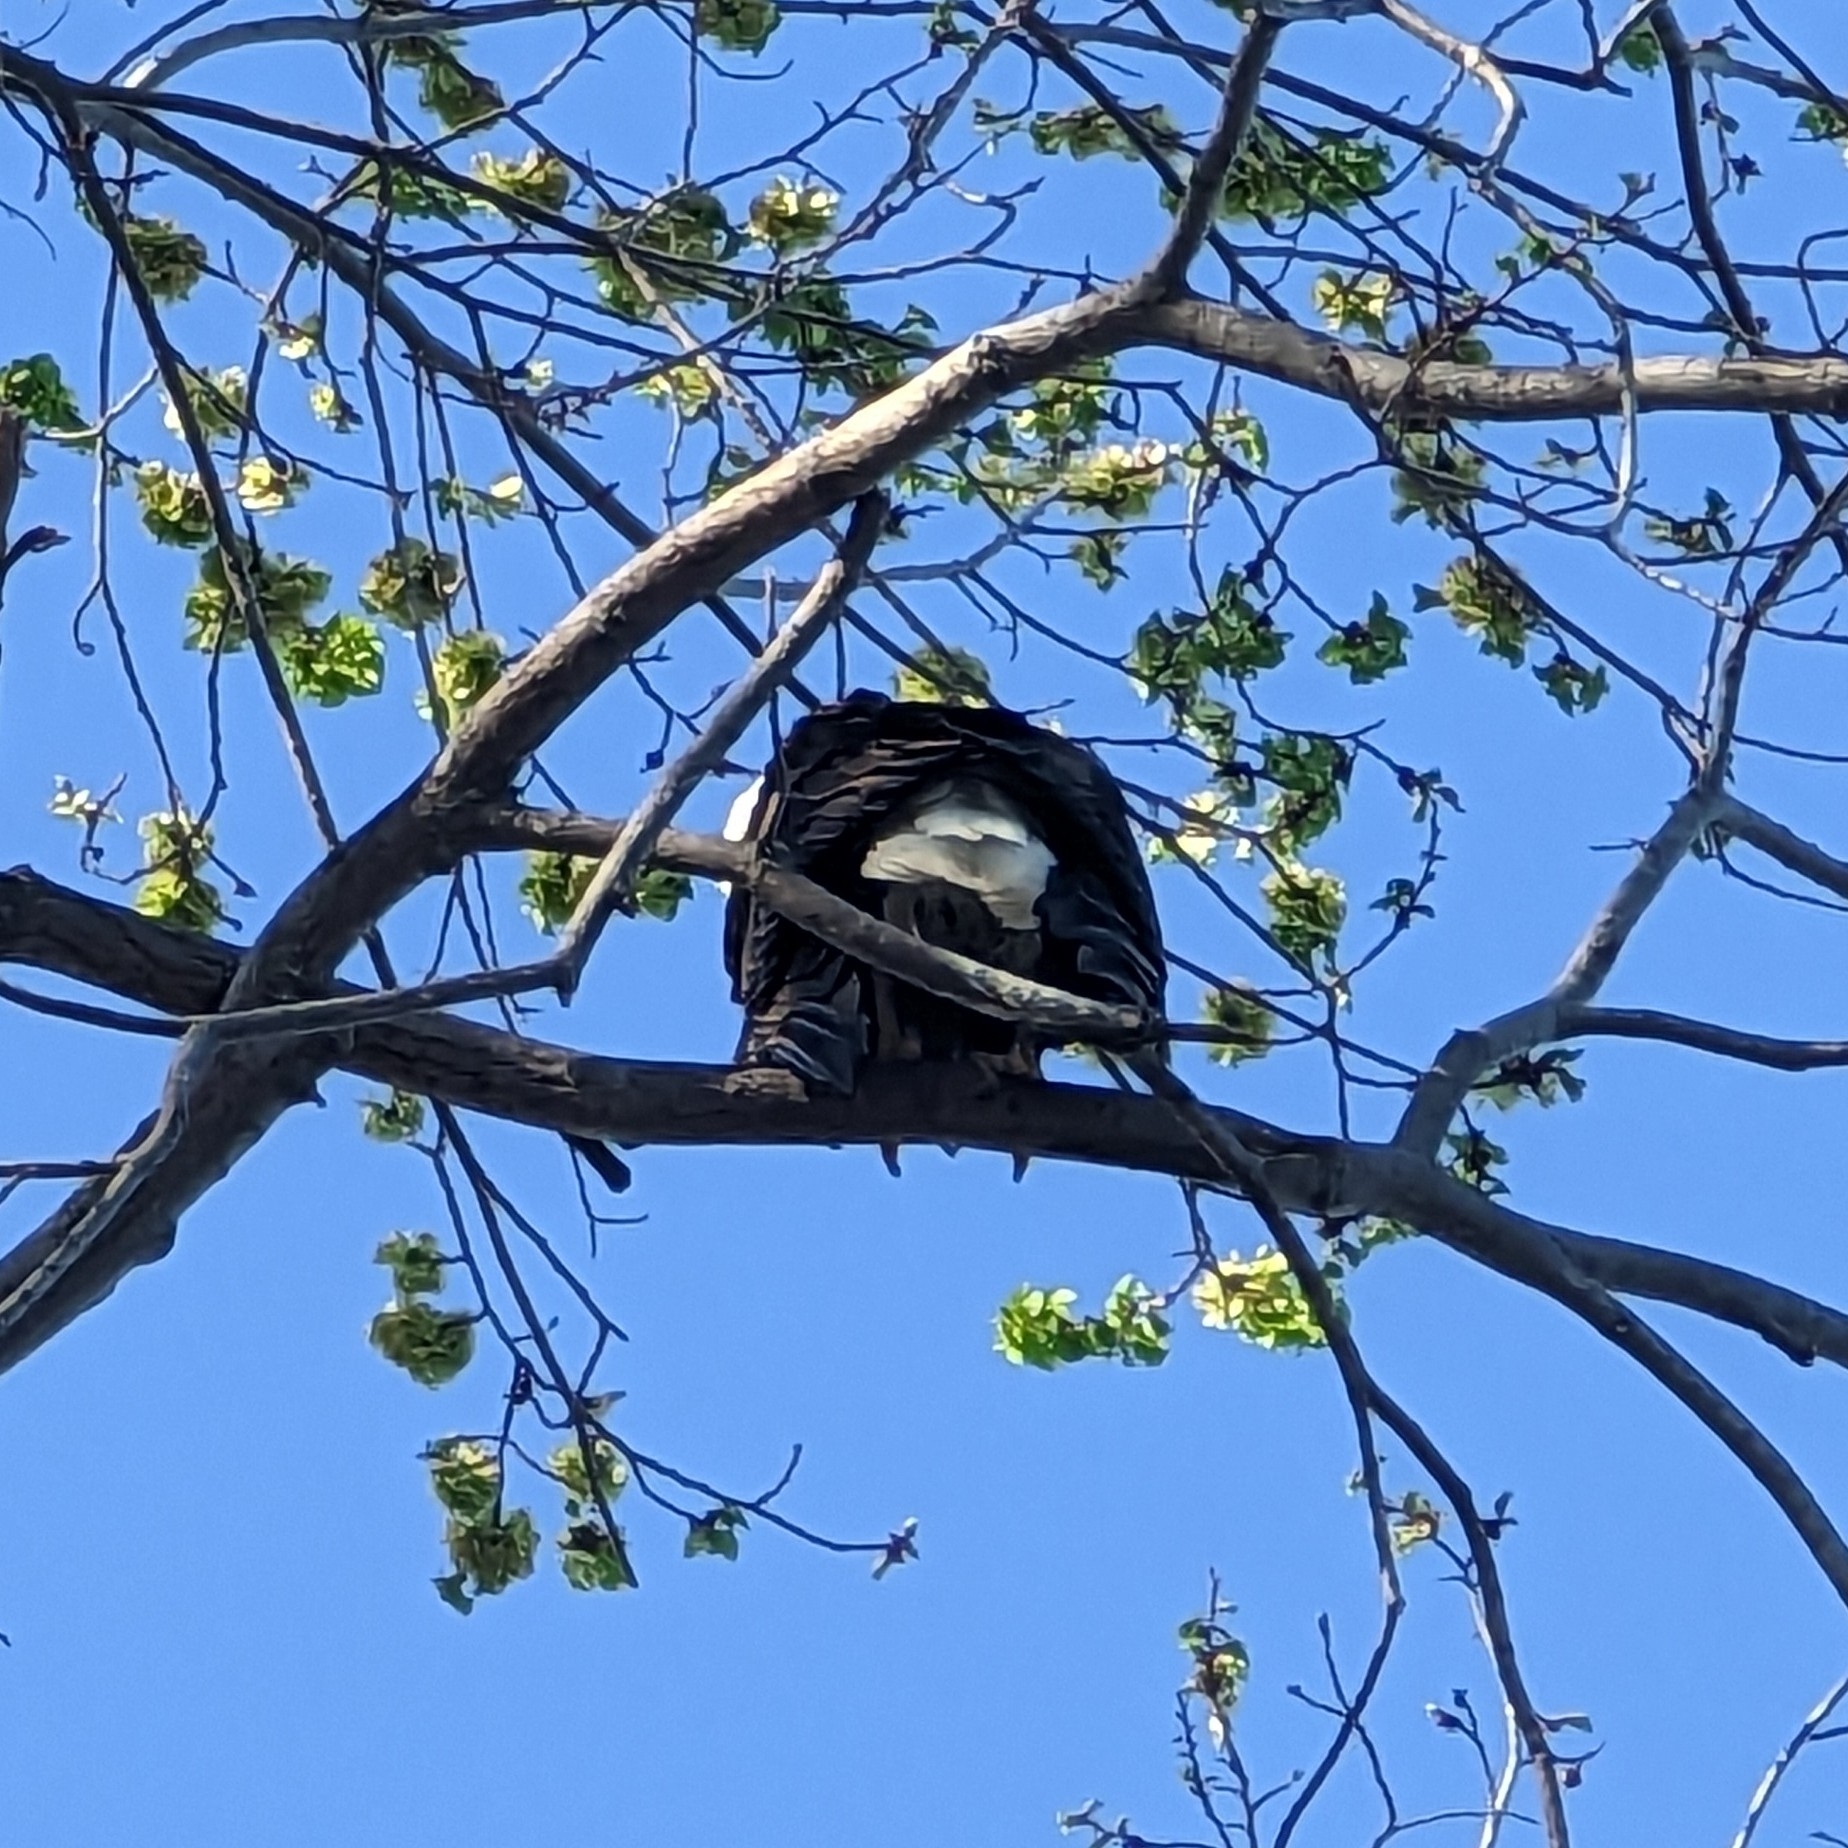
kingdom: Animalia
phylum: Chordata
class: Aves
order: Accipitriformes
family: Accipitridae
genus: Haliaeetus
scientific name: Haliaeetus leucocephalus
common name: Bald eagle
